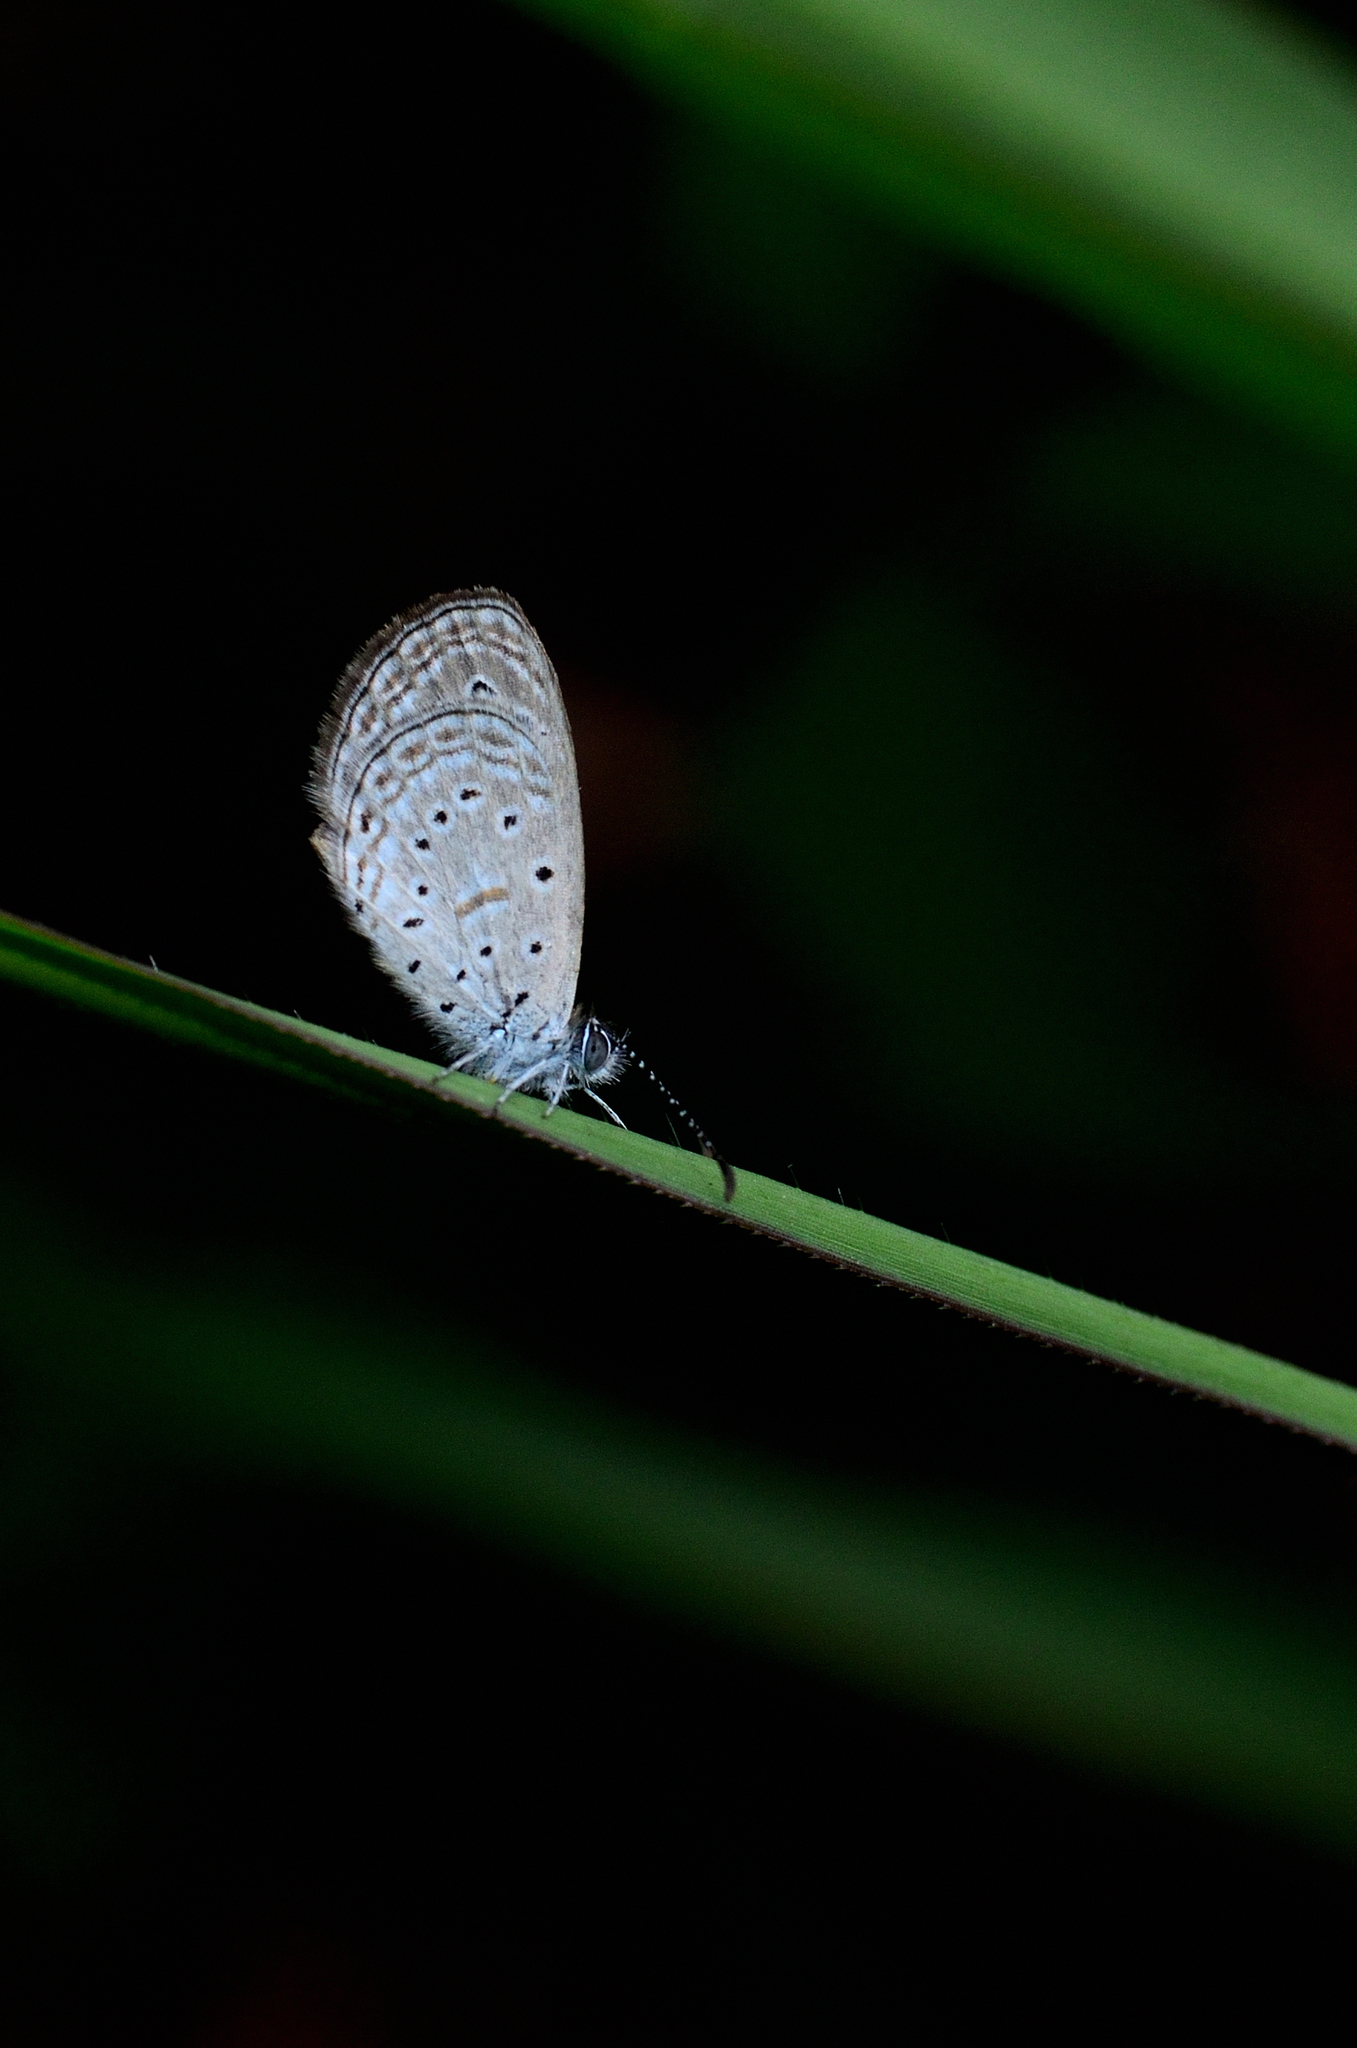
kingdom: Animalia
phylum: Arthropoda
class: Insecta
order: Lepidoptera
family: Lycaenidae
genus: Zizula
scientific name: Zizula hylax
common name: Gaika blue
